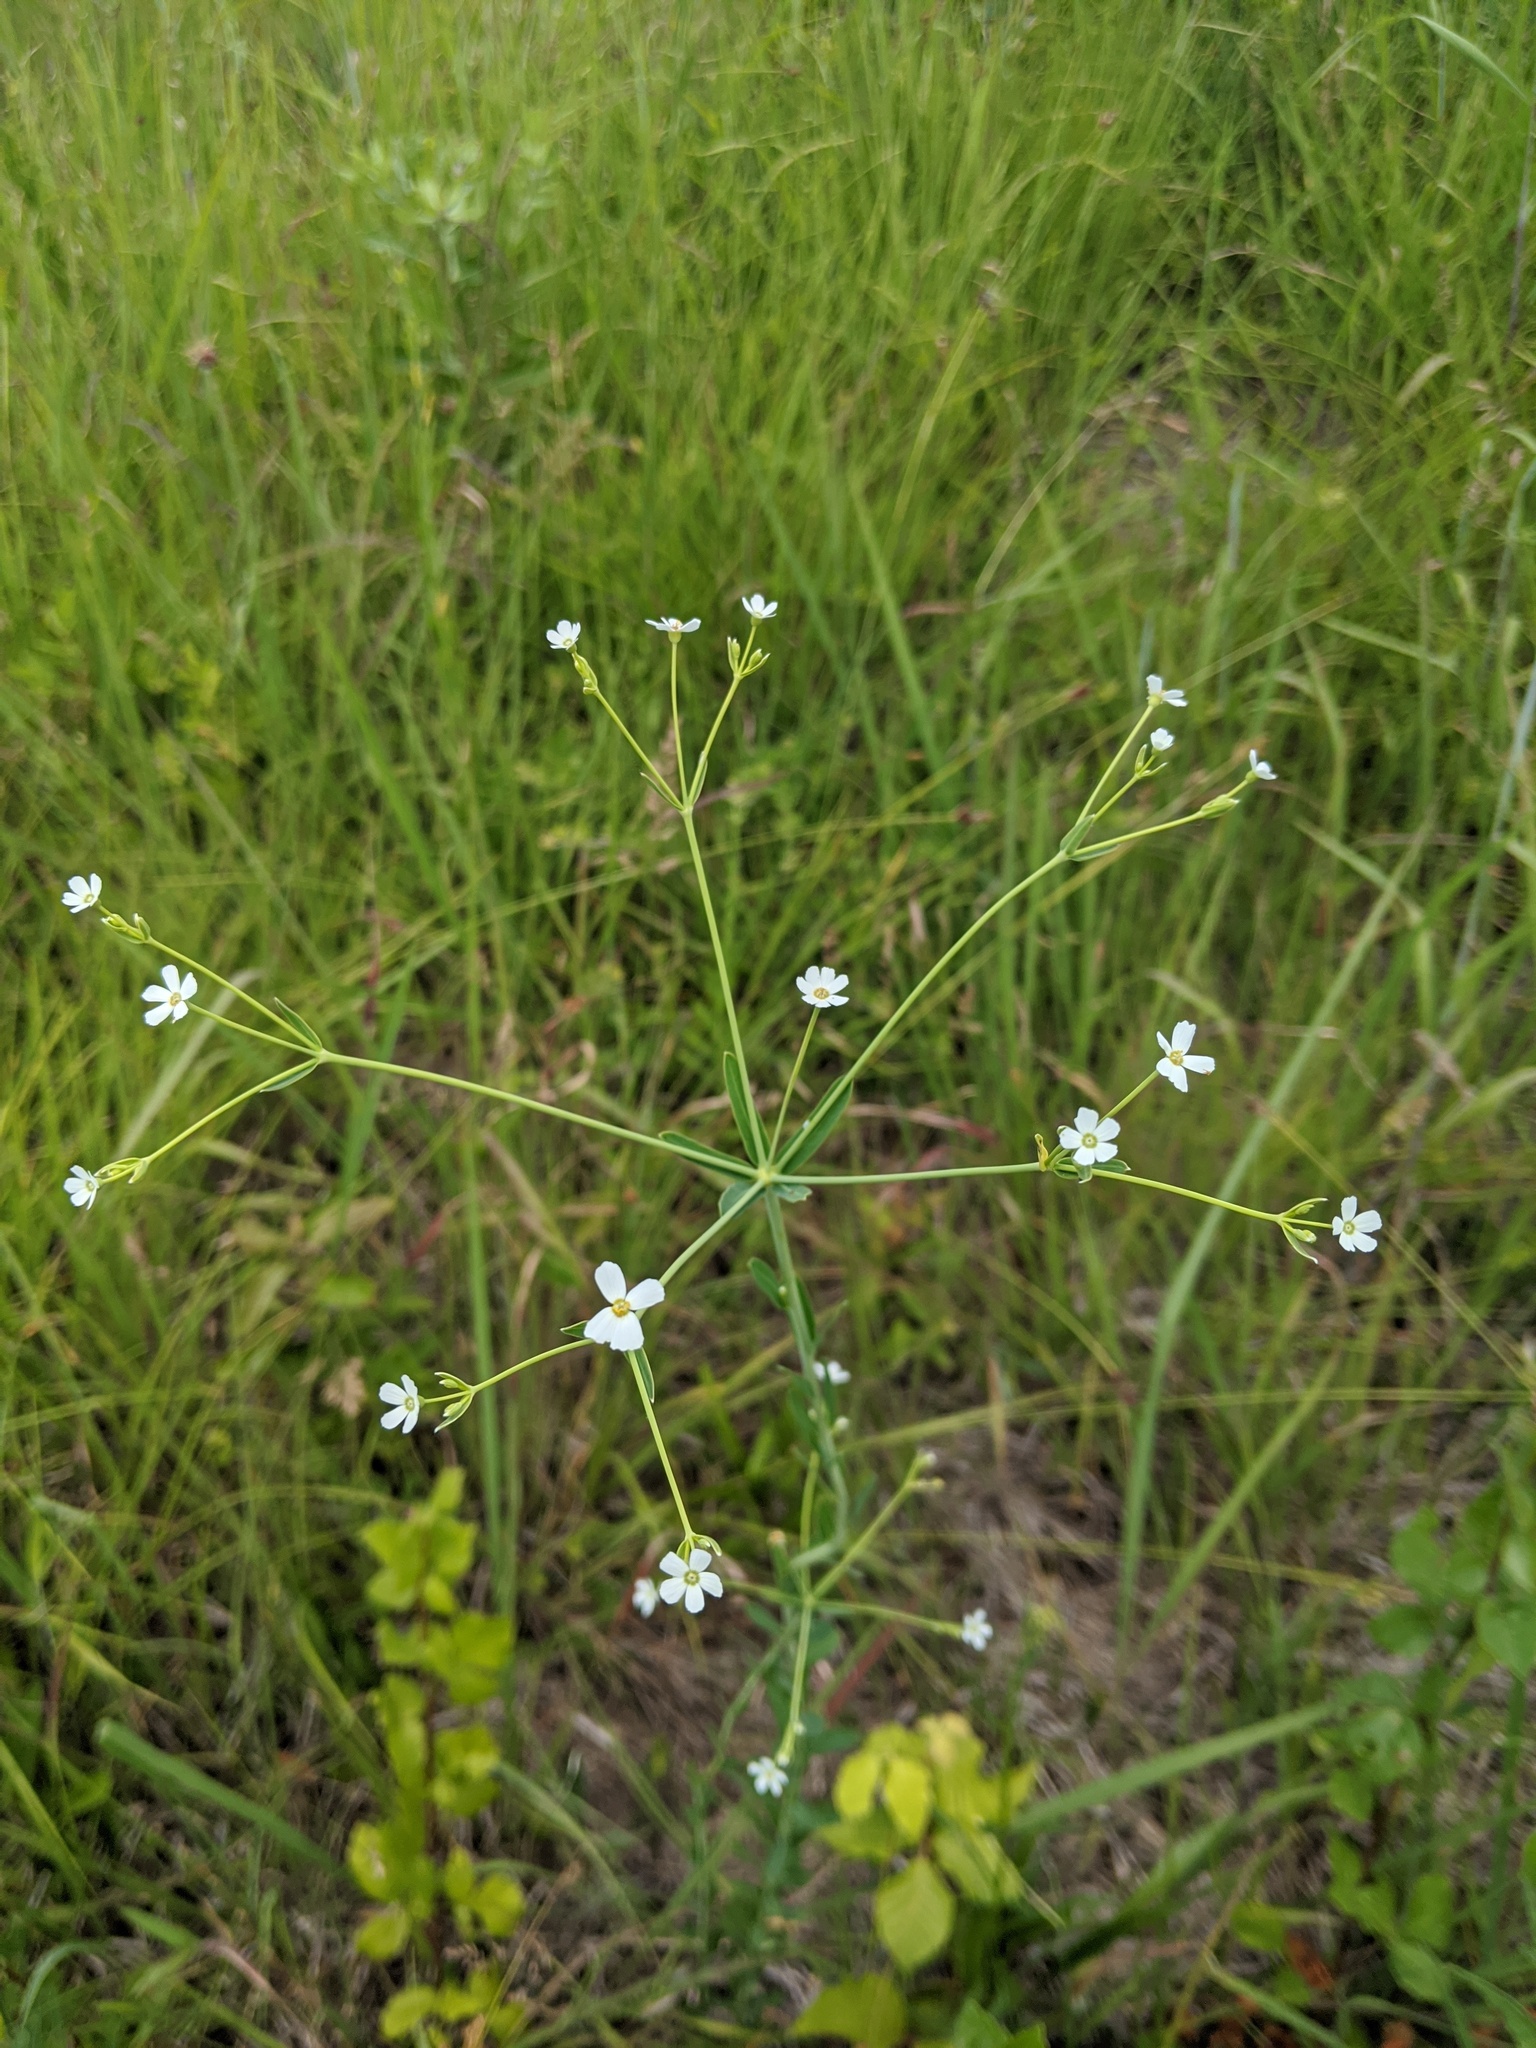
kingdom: Plantae
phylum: Tracheophyta
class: Magnoliopsida
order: Malpighiales
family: Euphorbiaceae
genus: Euphorbia
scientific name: Euphorbia corollata
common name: Flowering spurge
